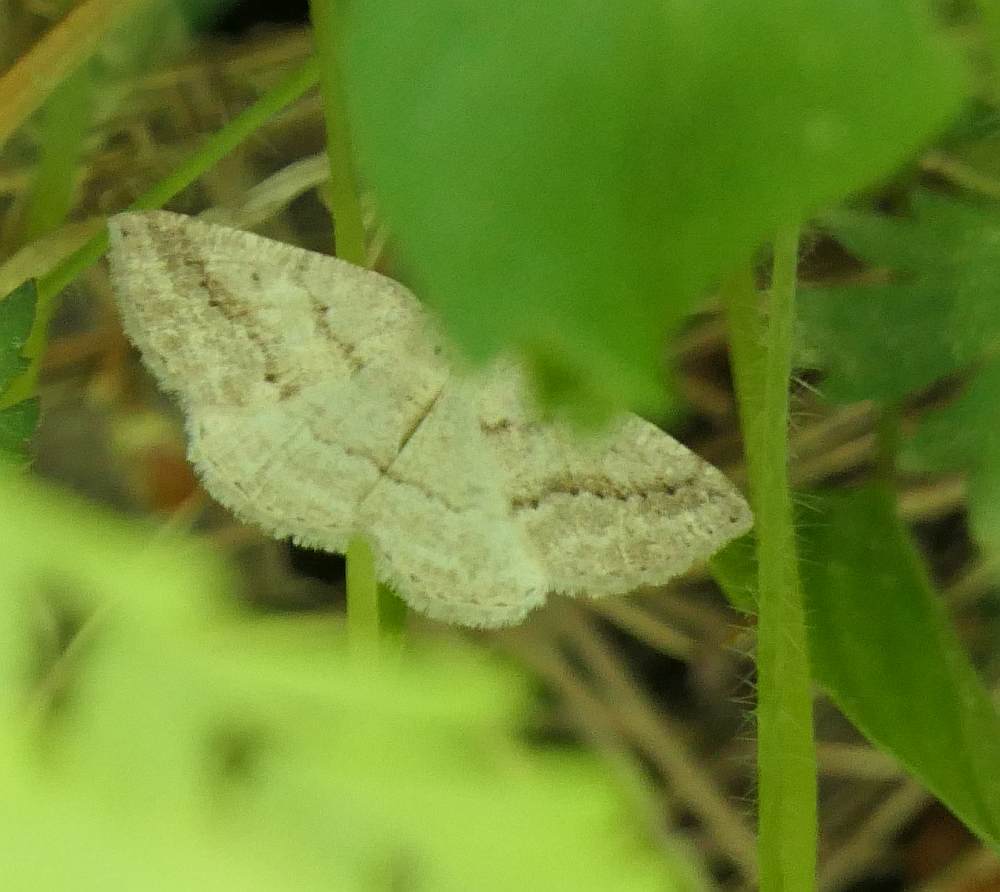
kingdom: Animalia
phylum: Arthropoda
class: Insecta
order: Lepidoptera
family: Geometridae
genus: Tacparia
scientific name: Tacparia detersata
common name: Pale alder moth
